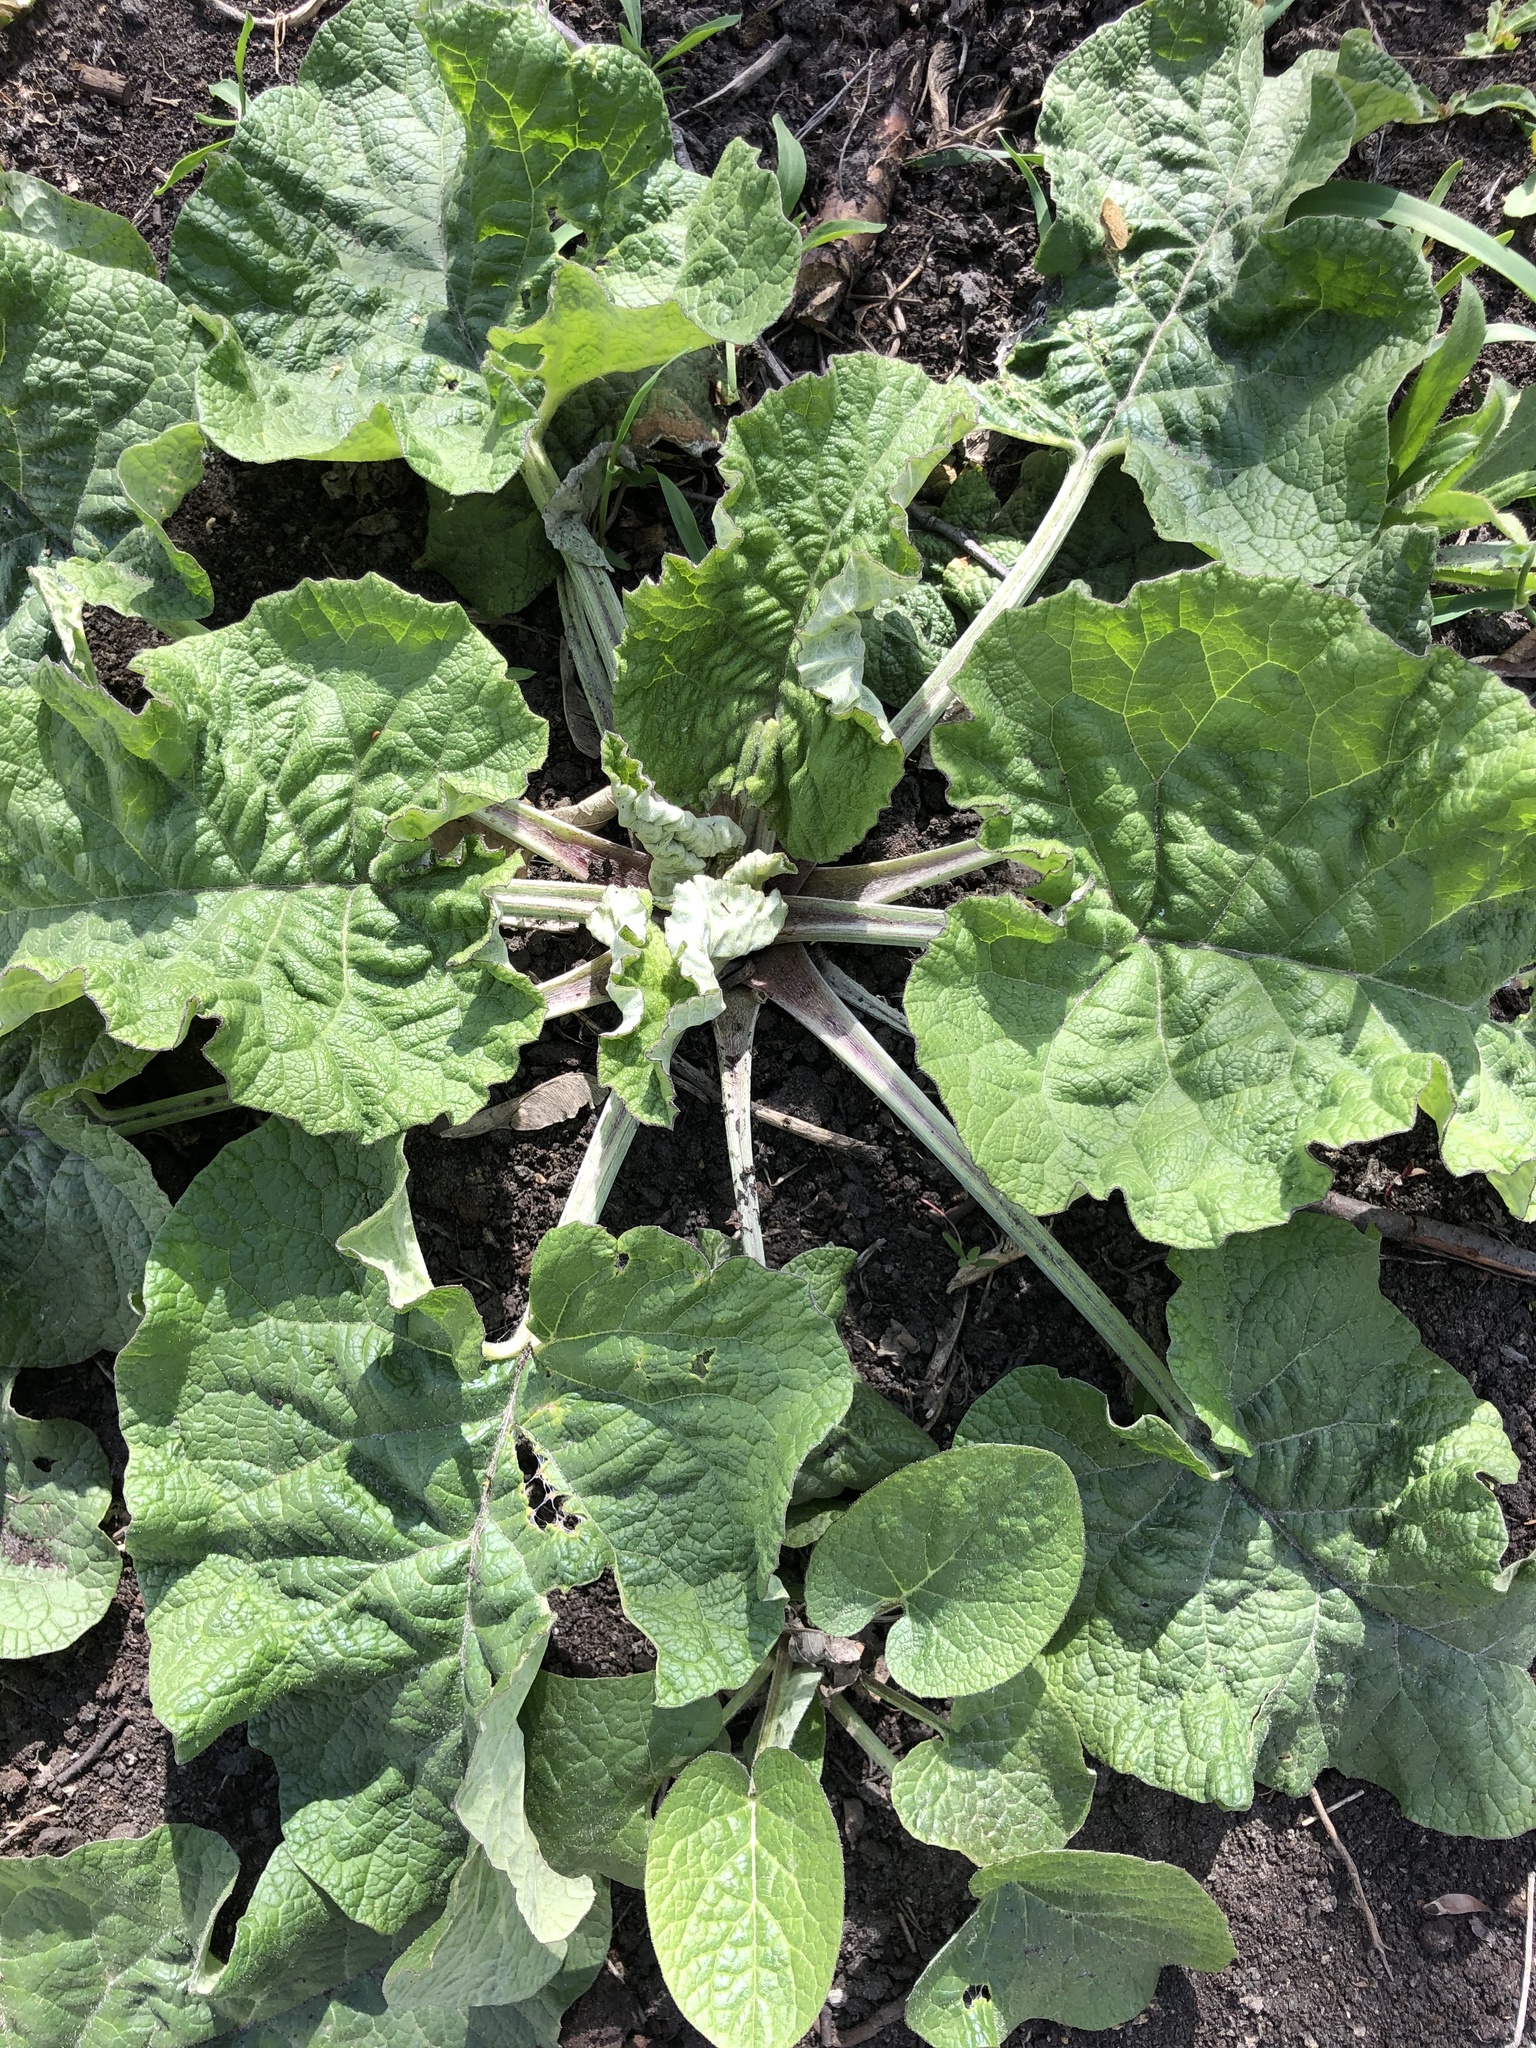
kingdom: Plantae
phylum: Tracheophyta
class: Magnoliopsida
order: Asterales
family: Asteraceae
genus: Arctium
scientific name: Arctium tomentosum
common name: Woolly burdock
